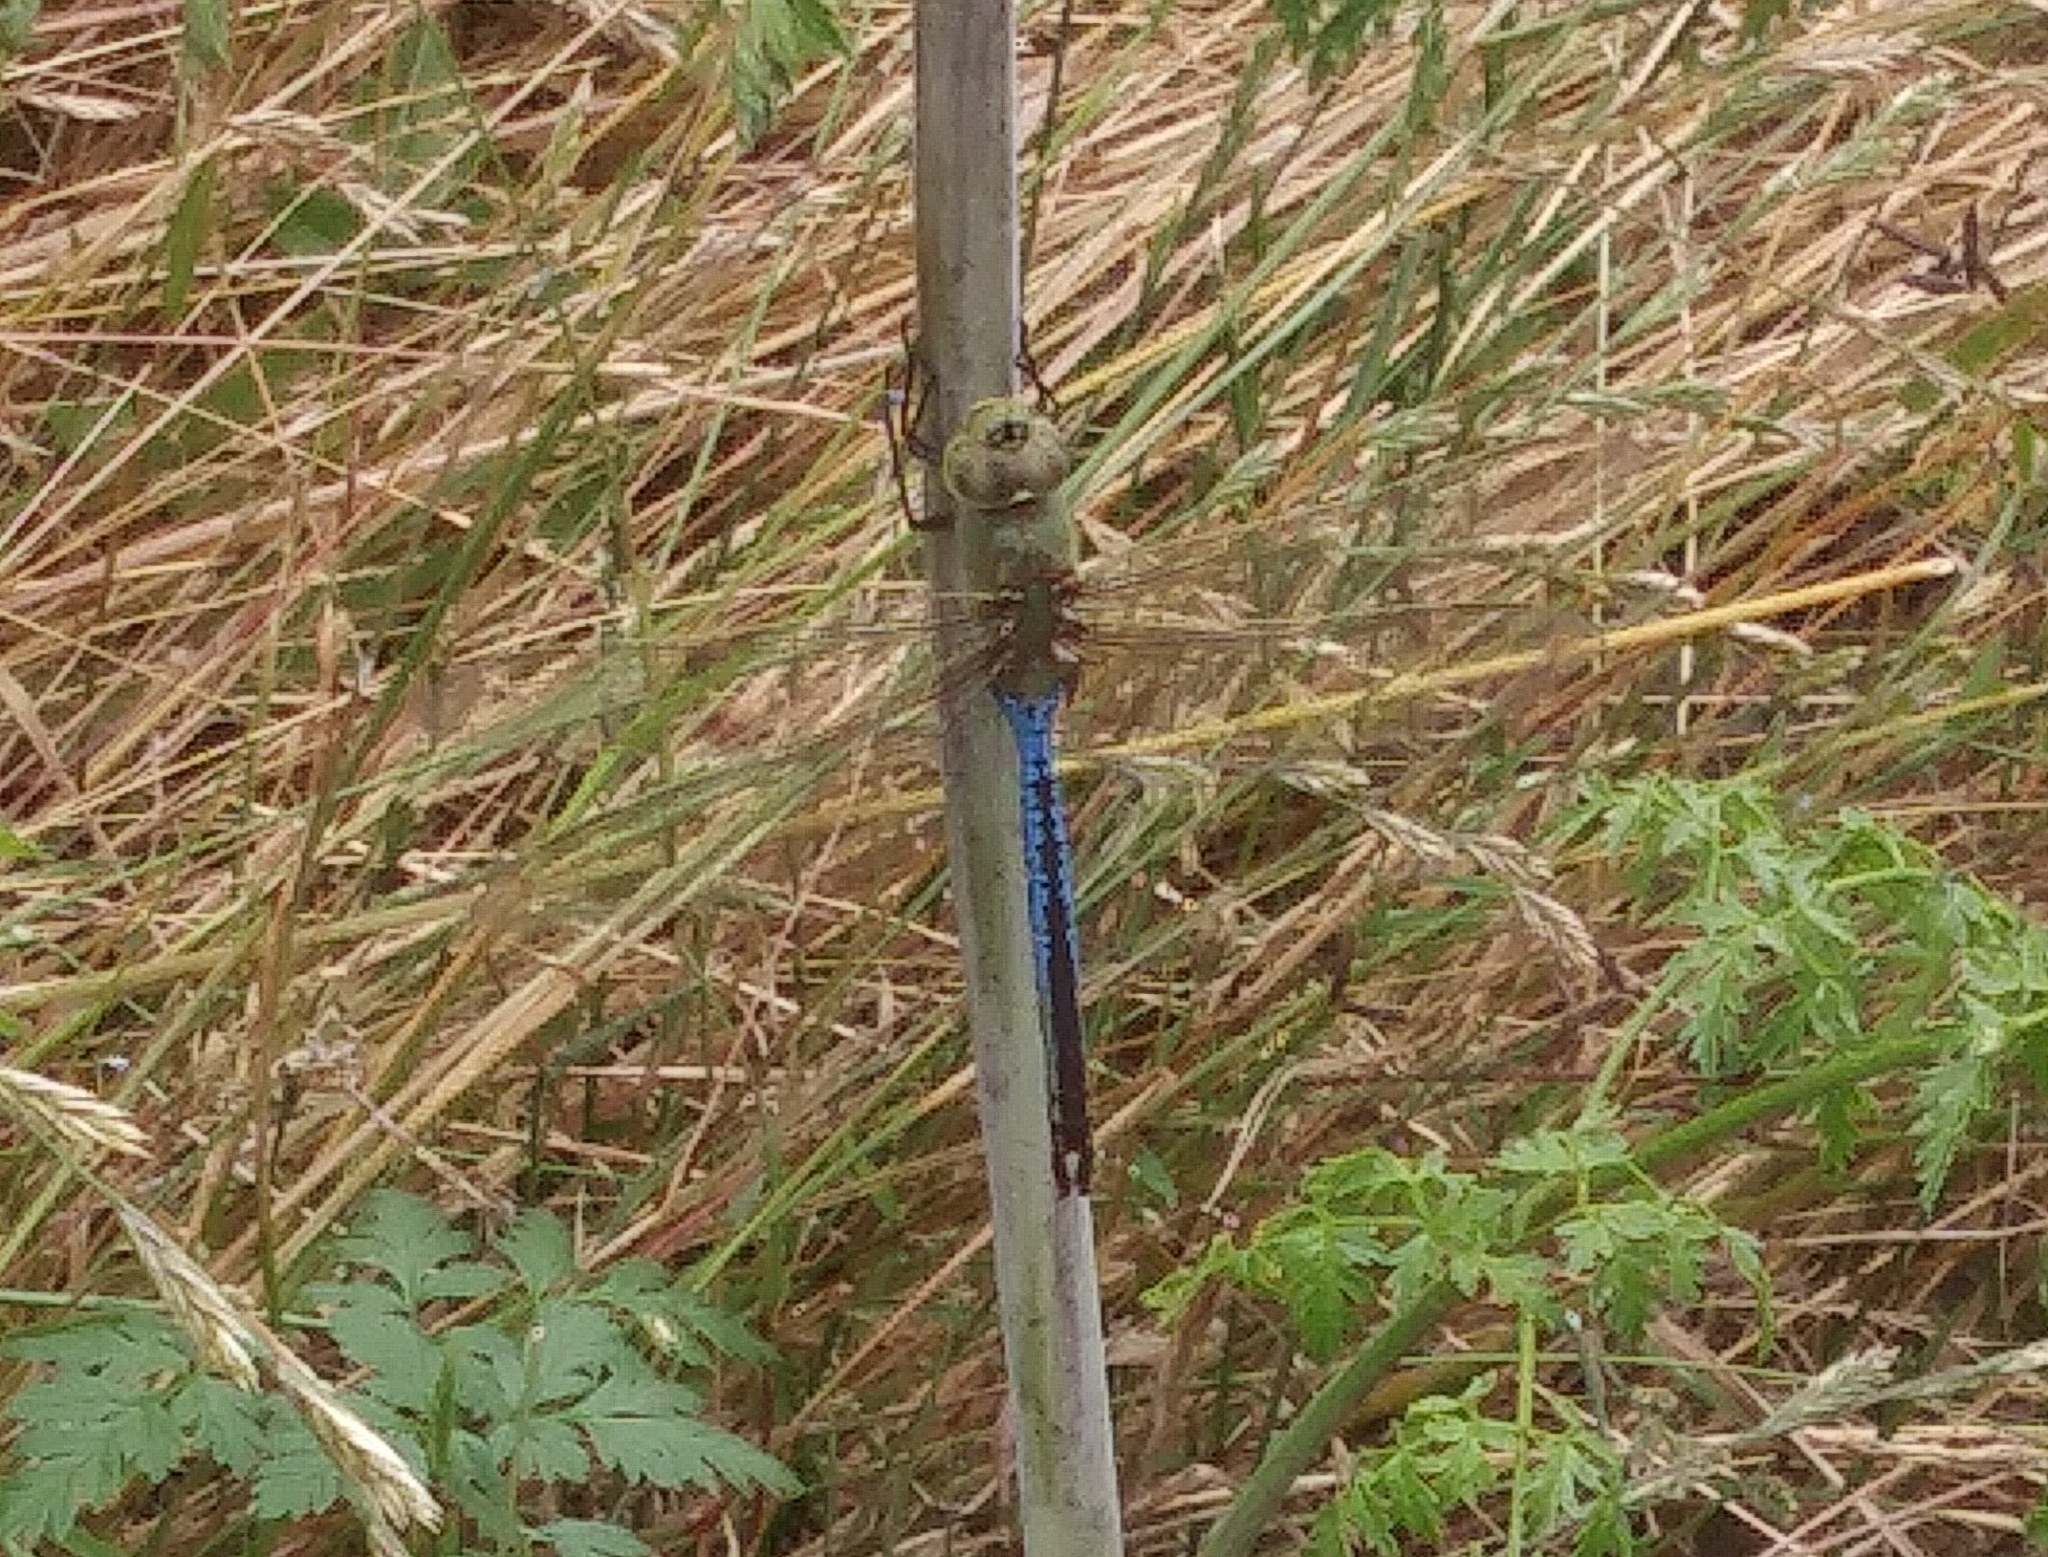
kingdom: Animalia
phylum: Arthropoda
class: Insecta
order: Odonata
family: Aeshnidae
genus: Anax
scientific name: Anax junius
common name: Common green darner
